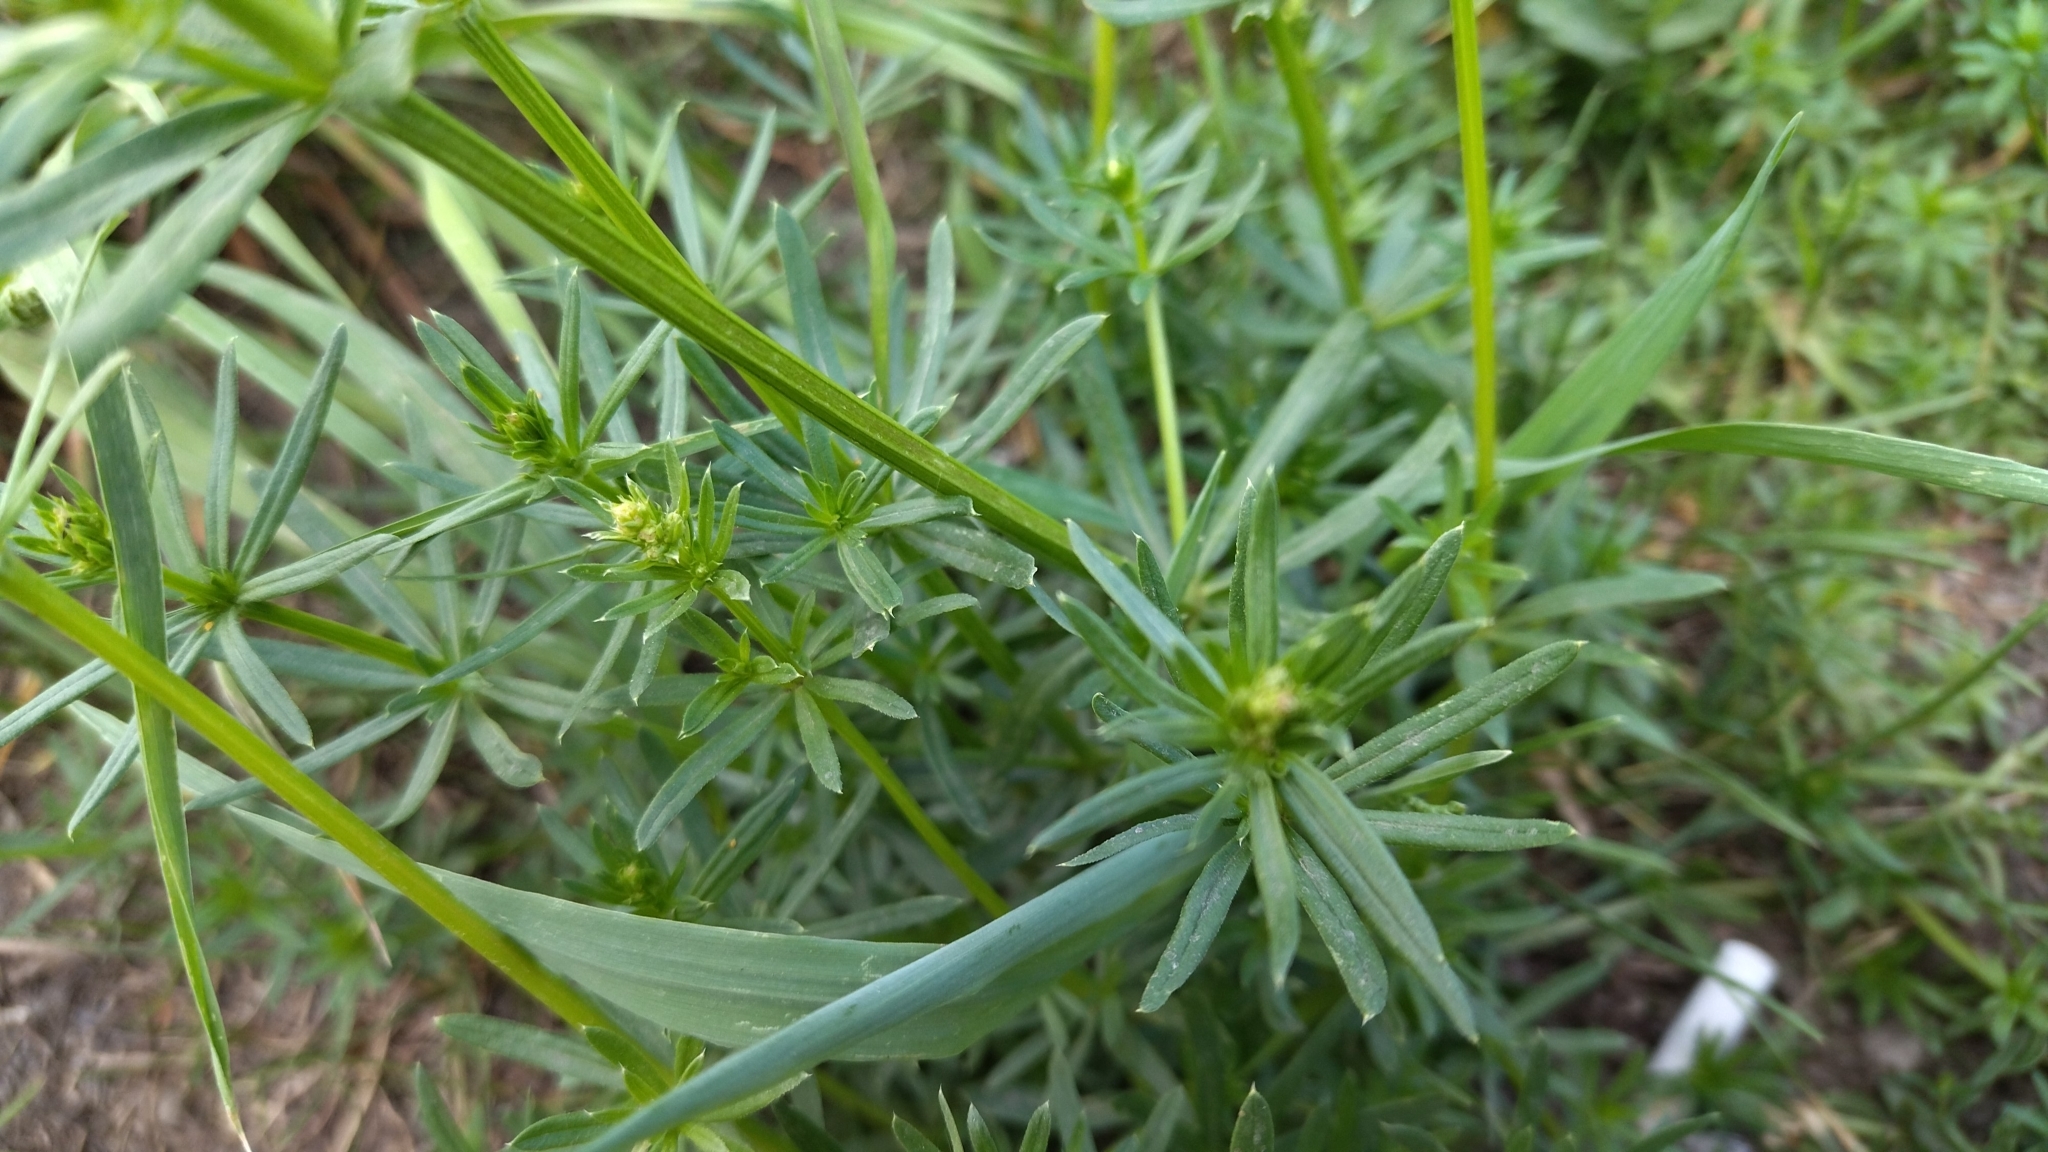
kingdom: Plantae
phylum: Tracheophyta
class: Magnoliopsida
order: Gentianales
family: Rubiaceae
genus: Galium
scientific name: Galium mollugo
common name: Hedge bedstraw
